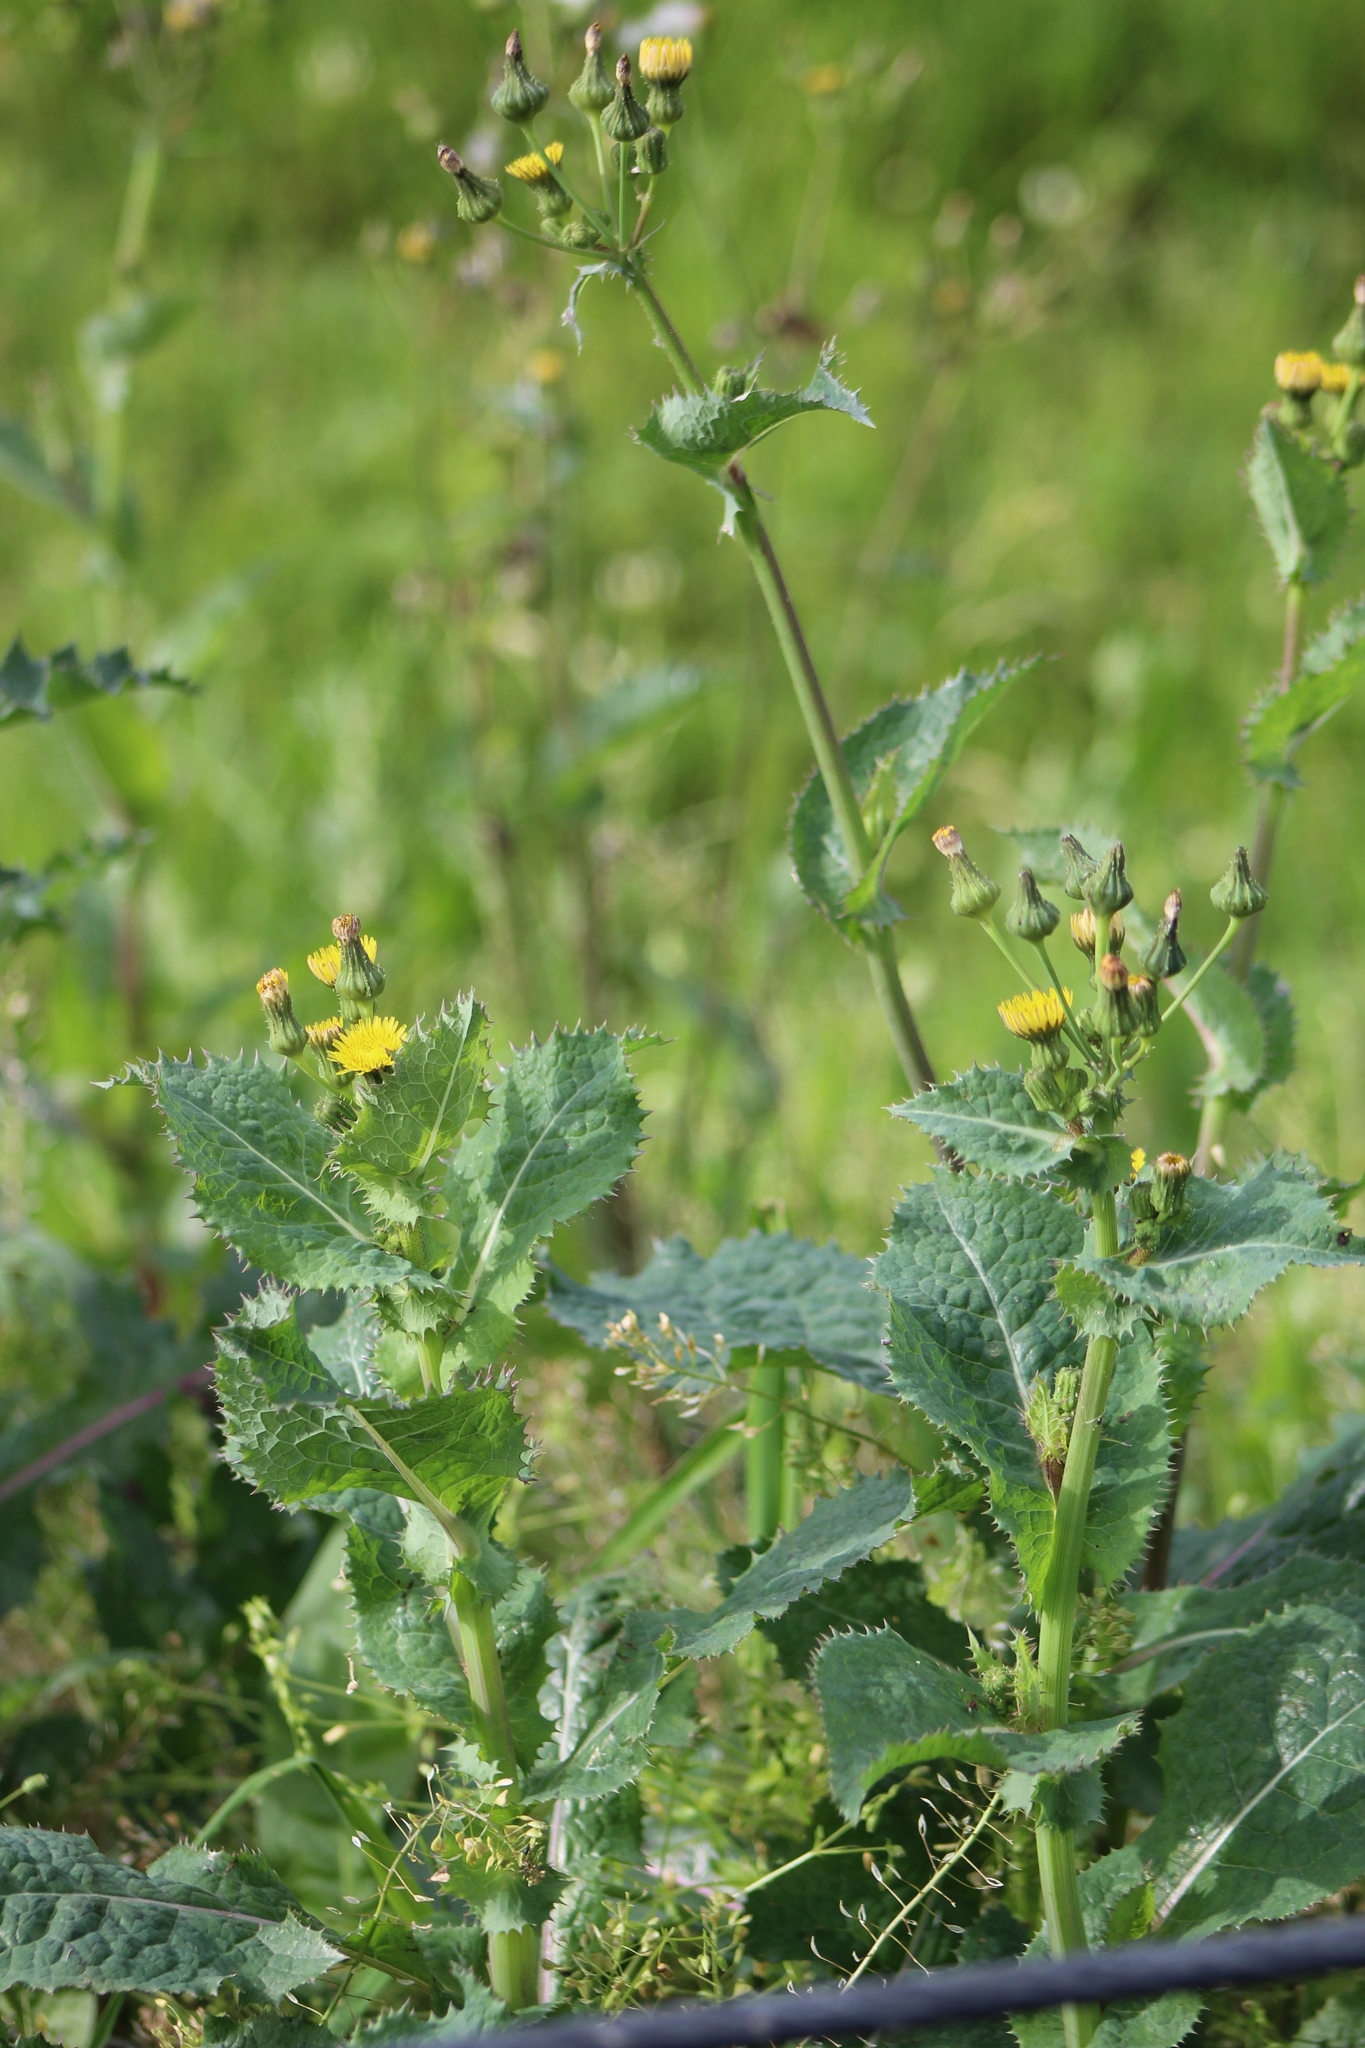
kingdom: Plantae
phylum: Tracheophyta
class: Magnoliopsida
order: Asterales
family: Asteraceae
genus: Sonchus
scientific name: Sonchus asper
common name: Prickly sow-thistle
